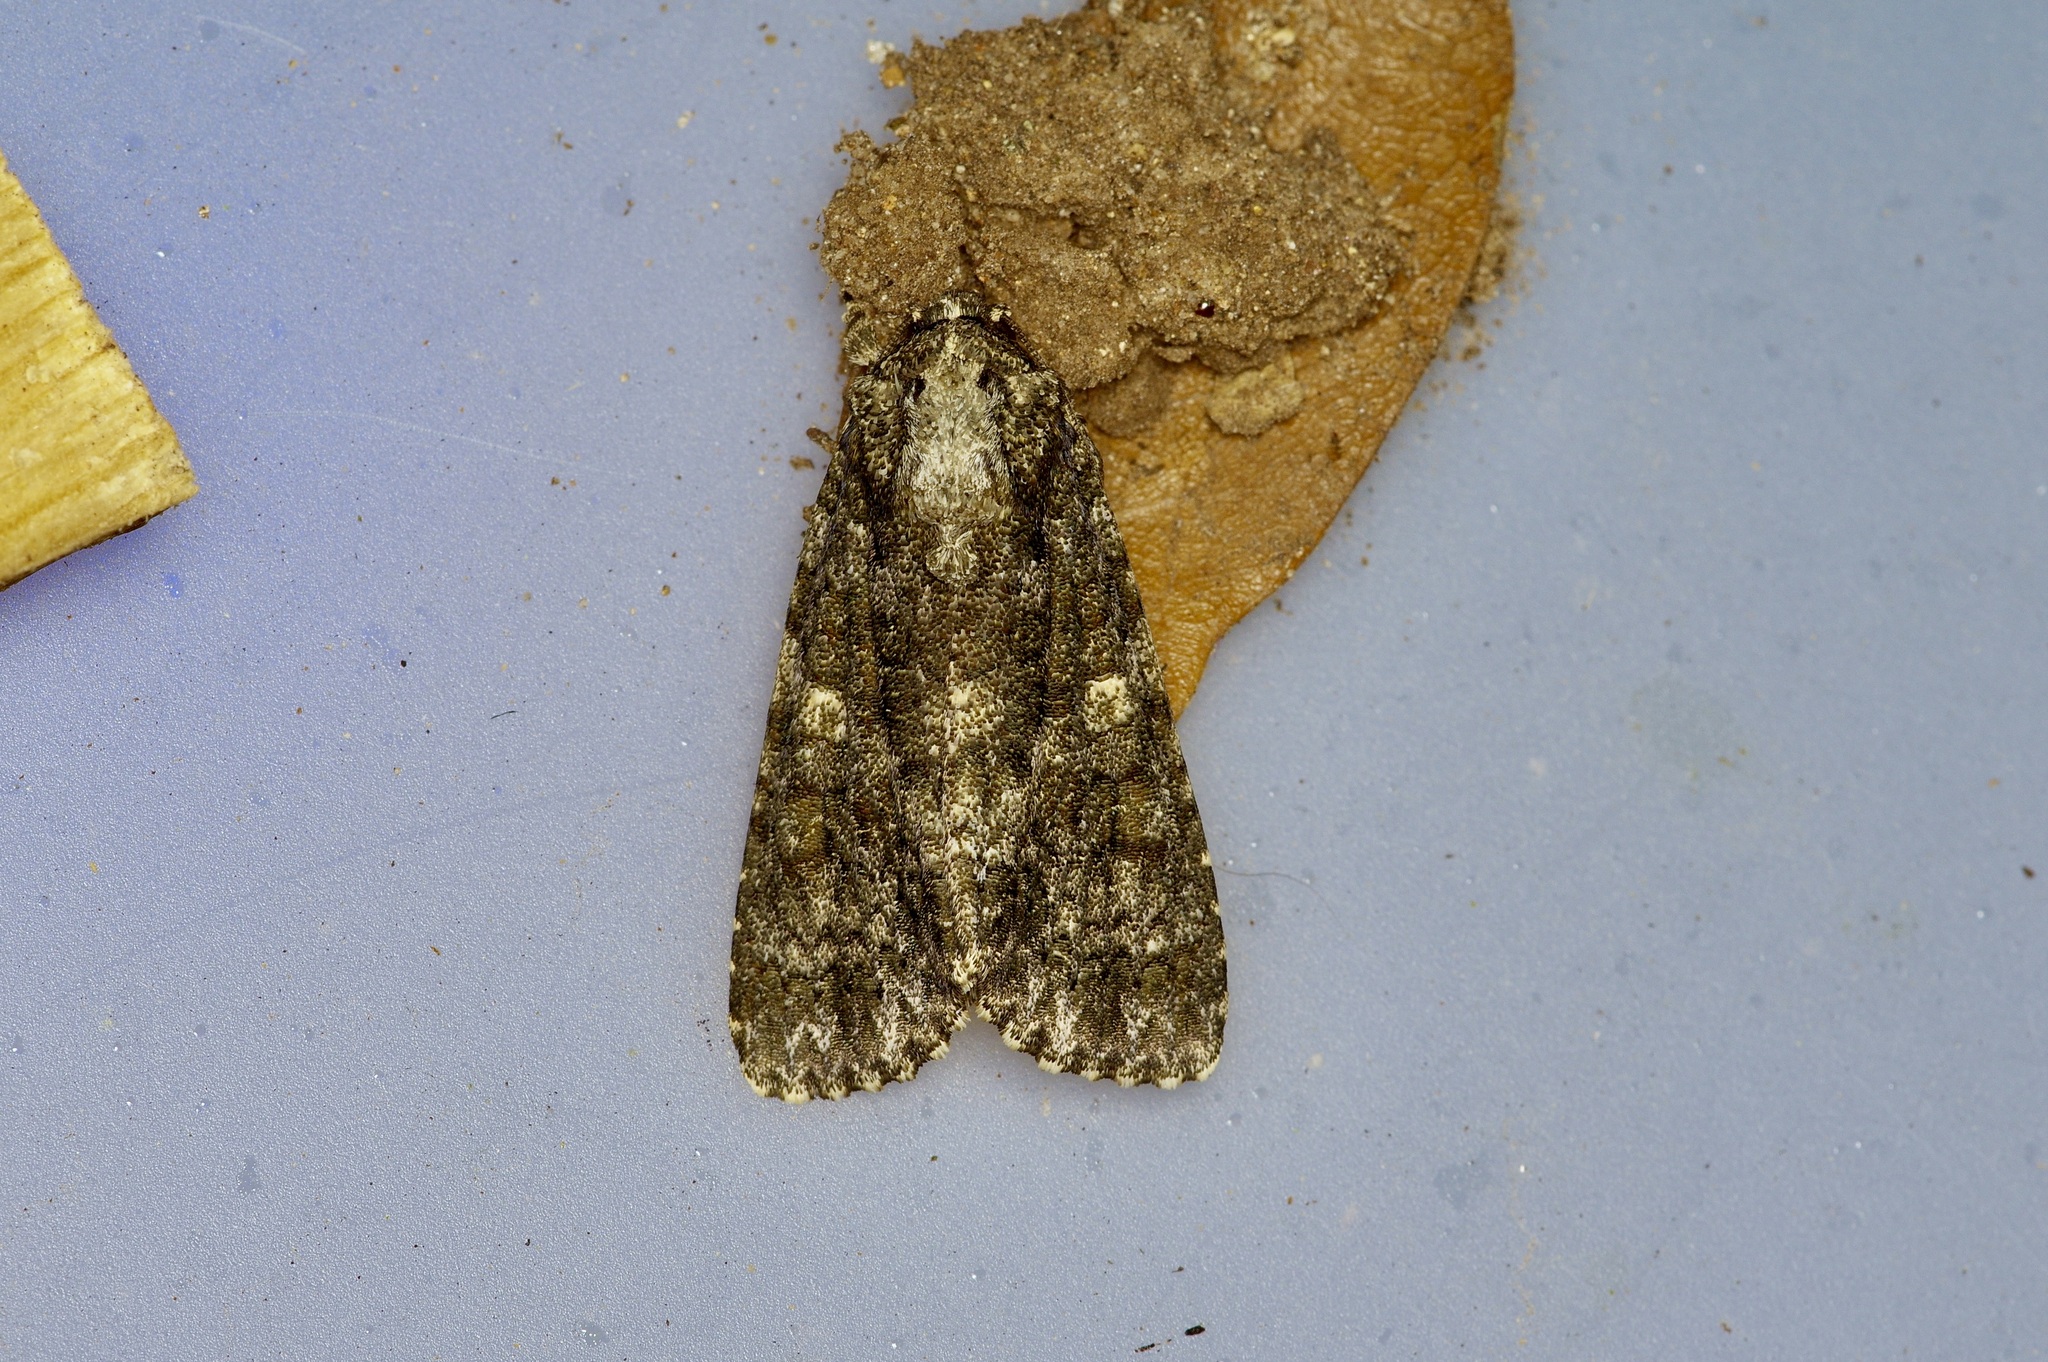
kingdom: Animalia
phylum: Arthropoda
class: Insecta
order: Lepidoptera
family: Noctuidae
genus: Acronicta
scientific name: Acronicta afflicta
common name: Afflicted dagger moth
